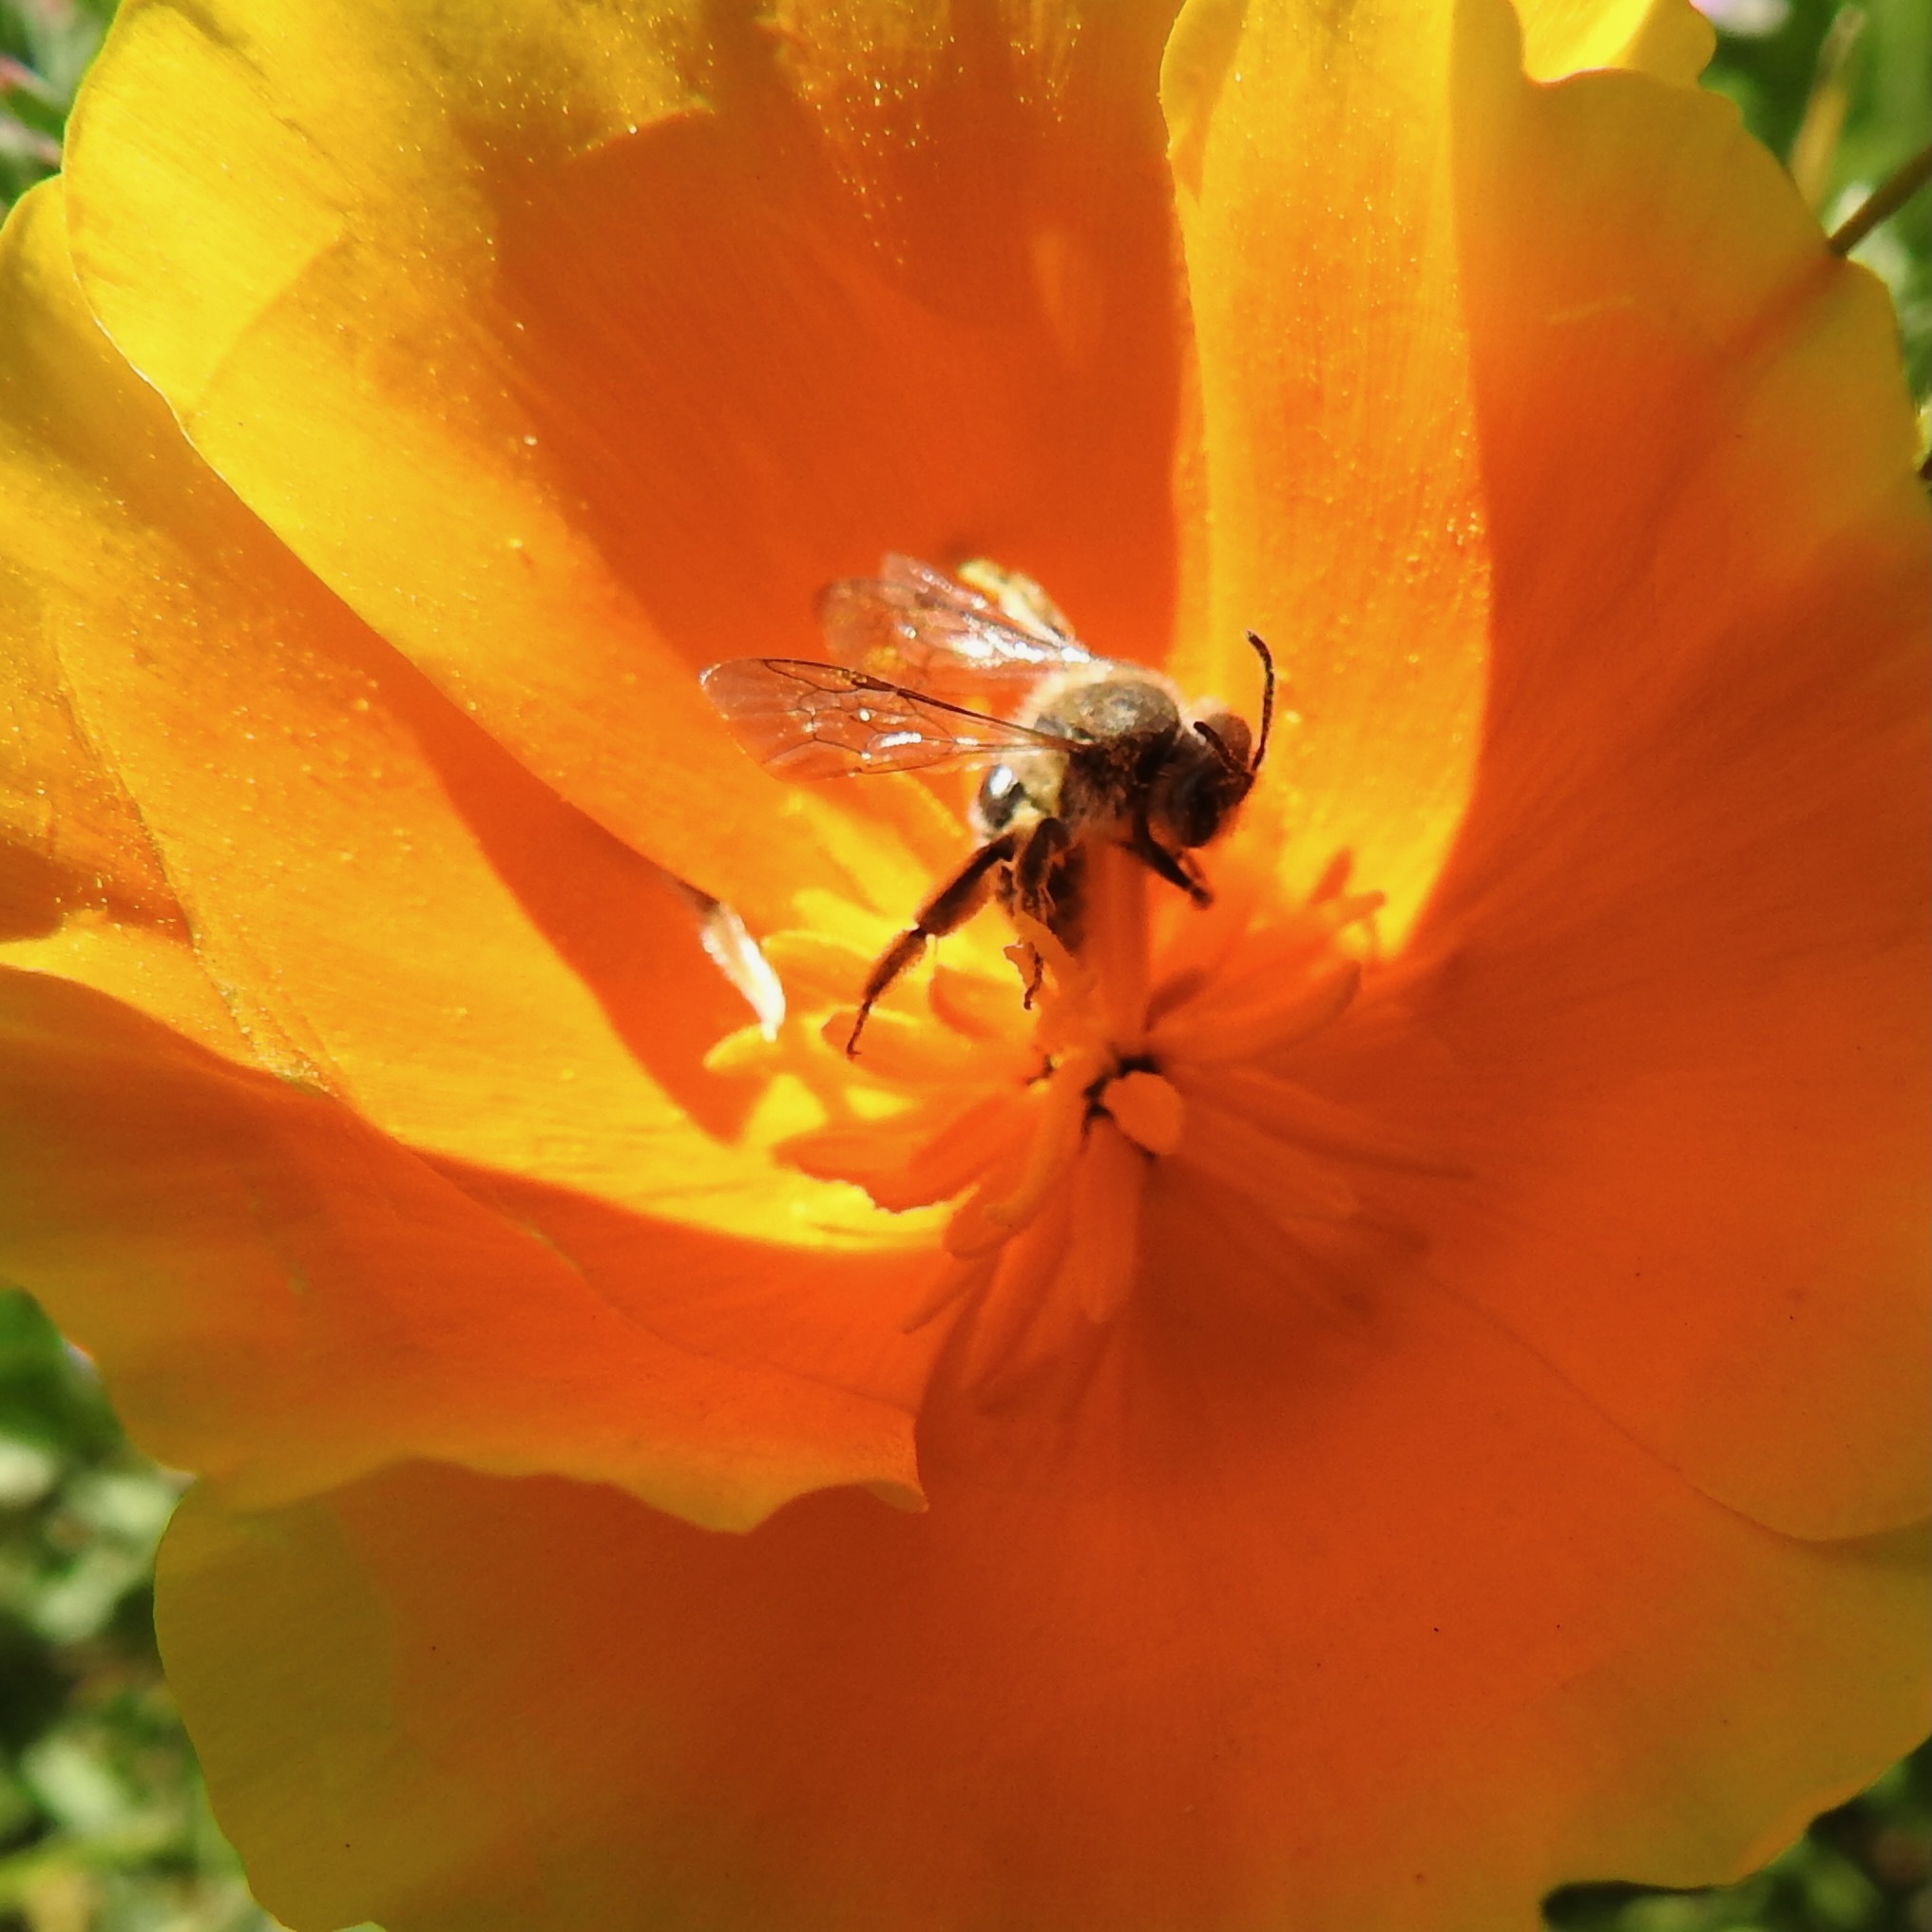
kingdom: Plantae
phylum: Tracheophyta
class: Magnoliopsida
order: Ranunculales
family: Papaveraceae
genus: Eschscholzia
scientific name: Eschscholzia californica
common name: California poppy
